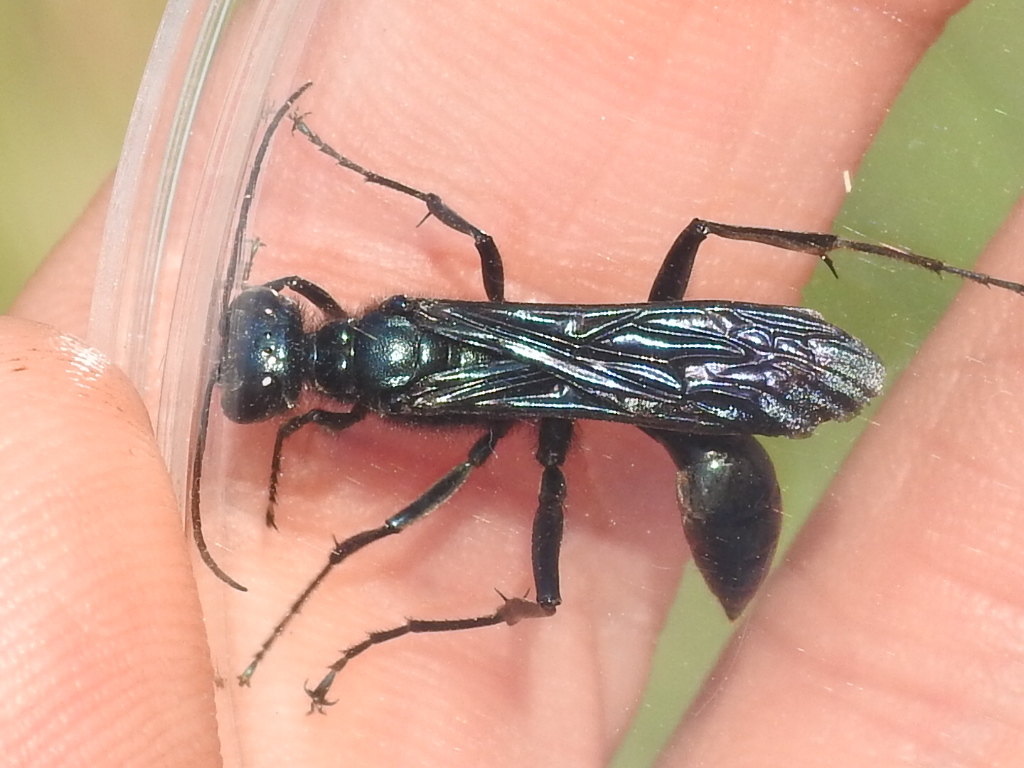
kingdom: Animalia
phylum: Arthropoda
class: Insecta
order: Hymenoptera
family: Sphecidae
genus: Chalybion
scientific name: Chalybion californicum
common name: Mud dauber
